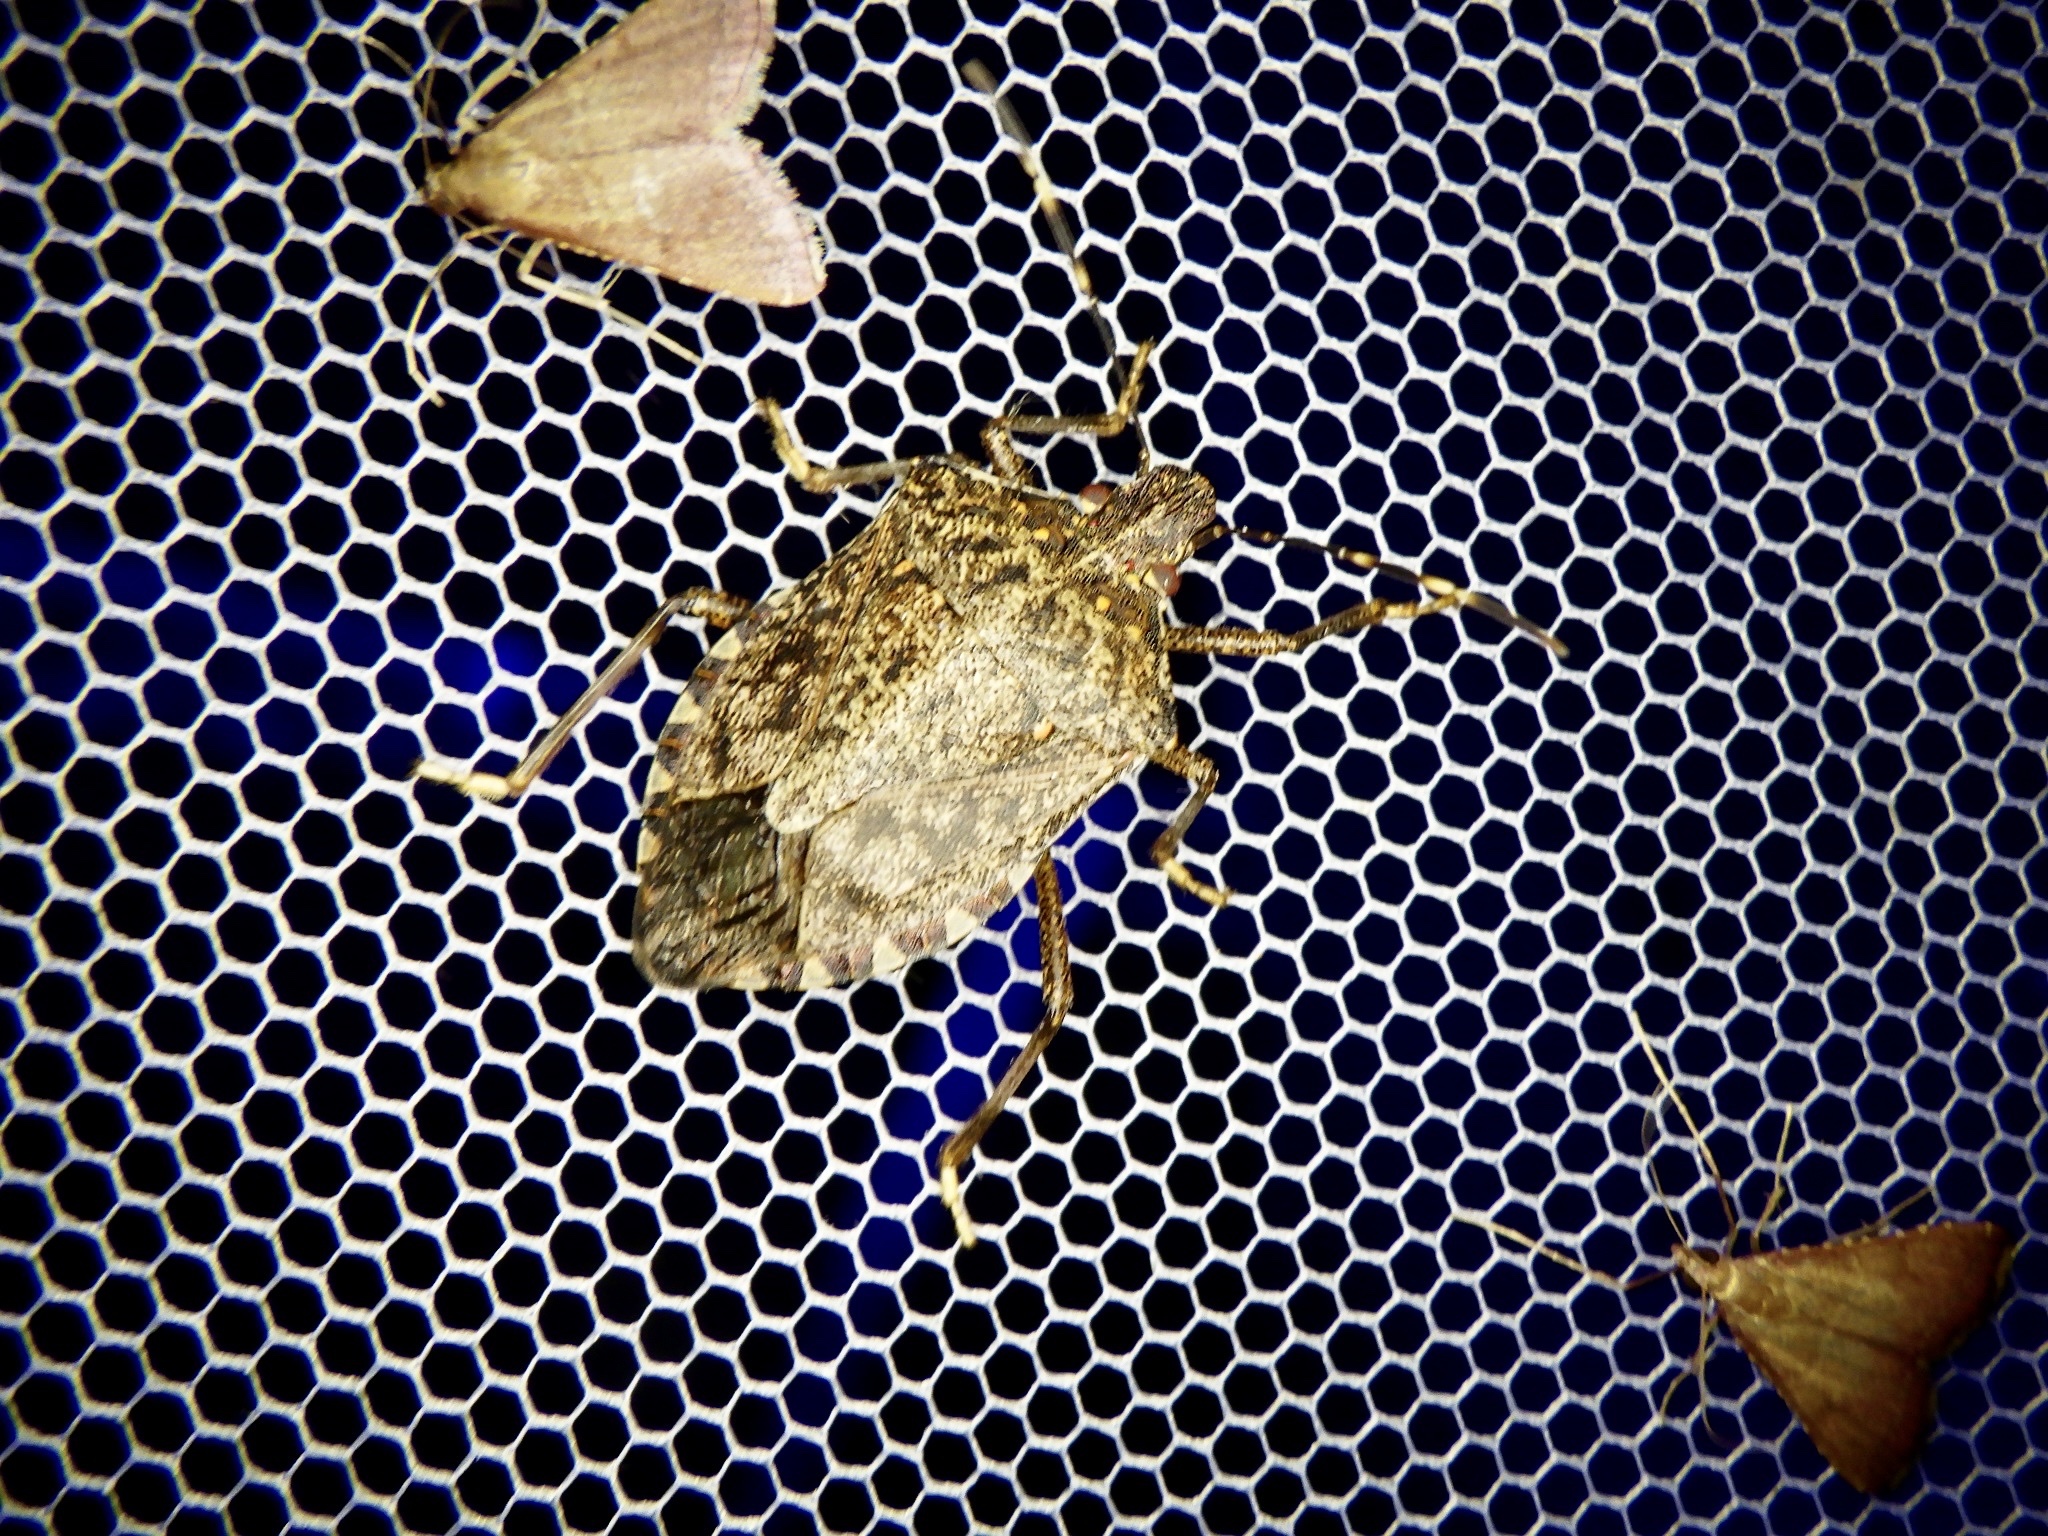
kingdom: Animalia
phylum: Arthropoda
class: Insecta
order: Hemiptera
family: Pentatomidae
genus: Halyomorpha
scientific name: Halyomorpha halys
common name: Brown marmorated stink bug
